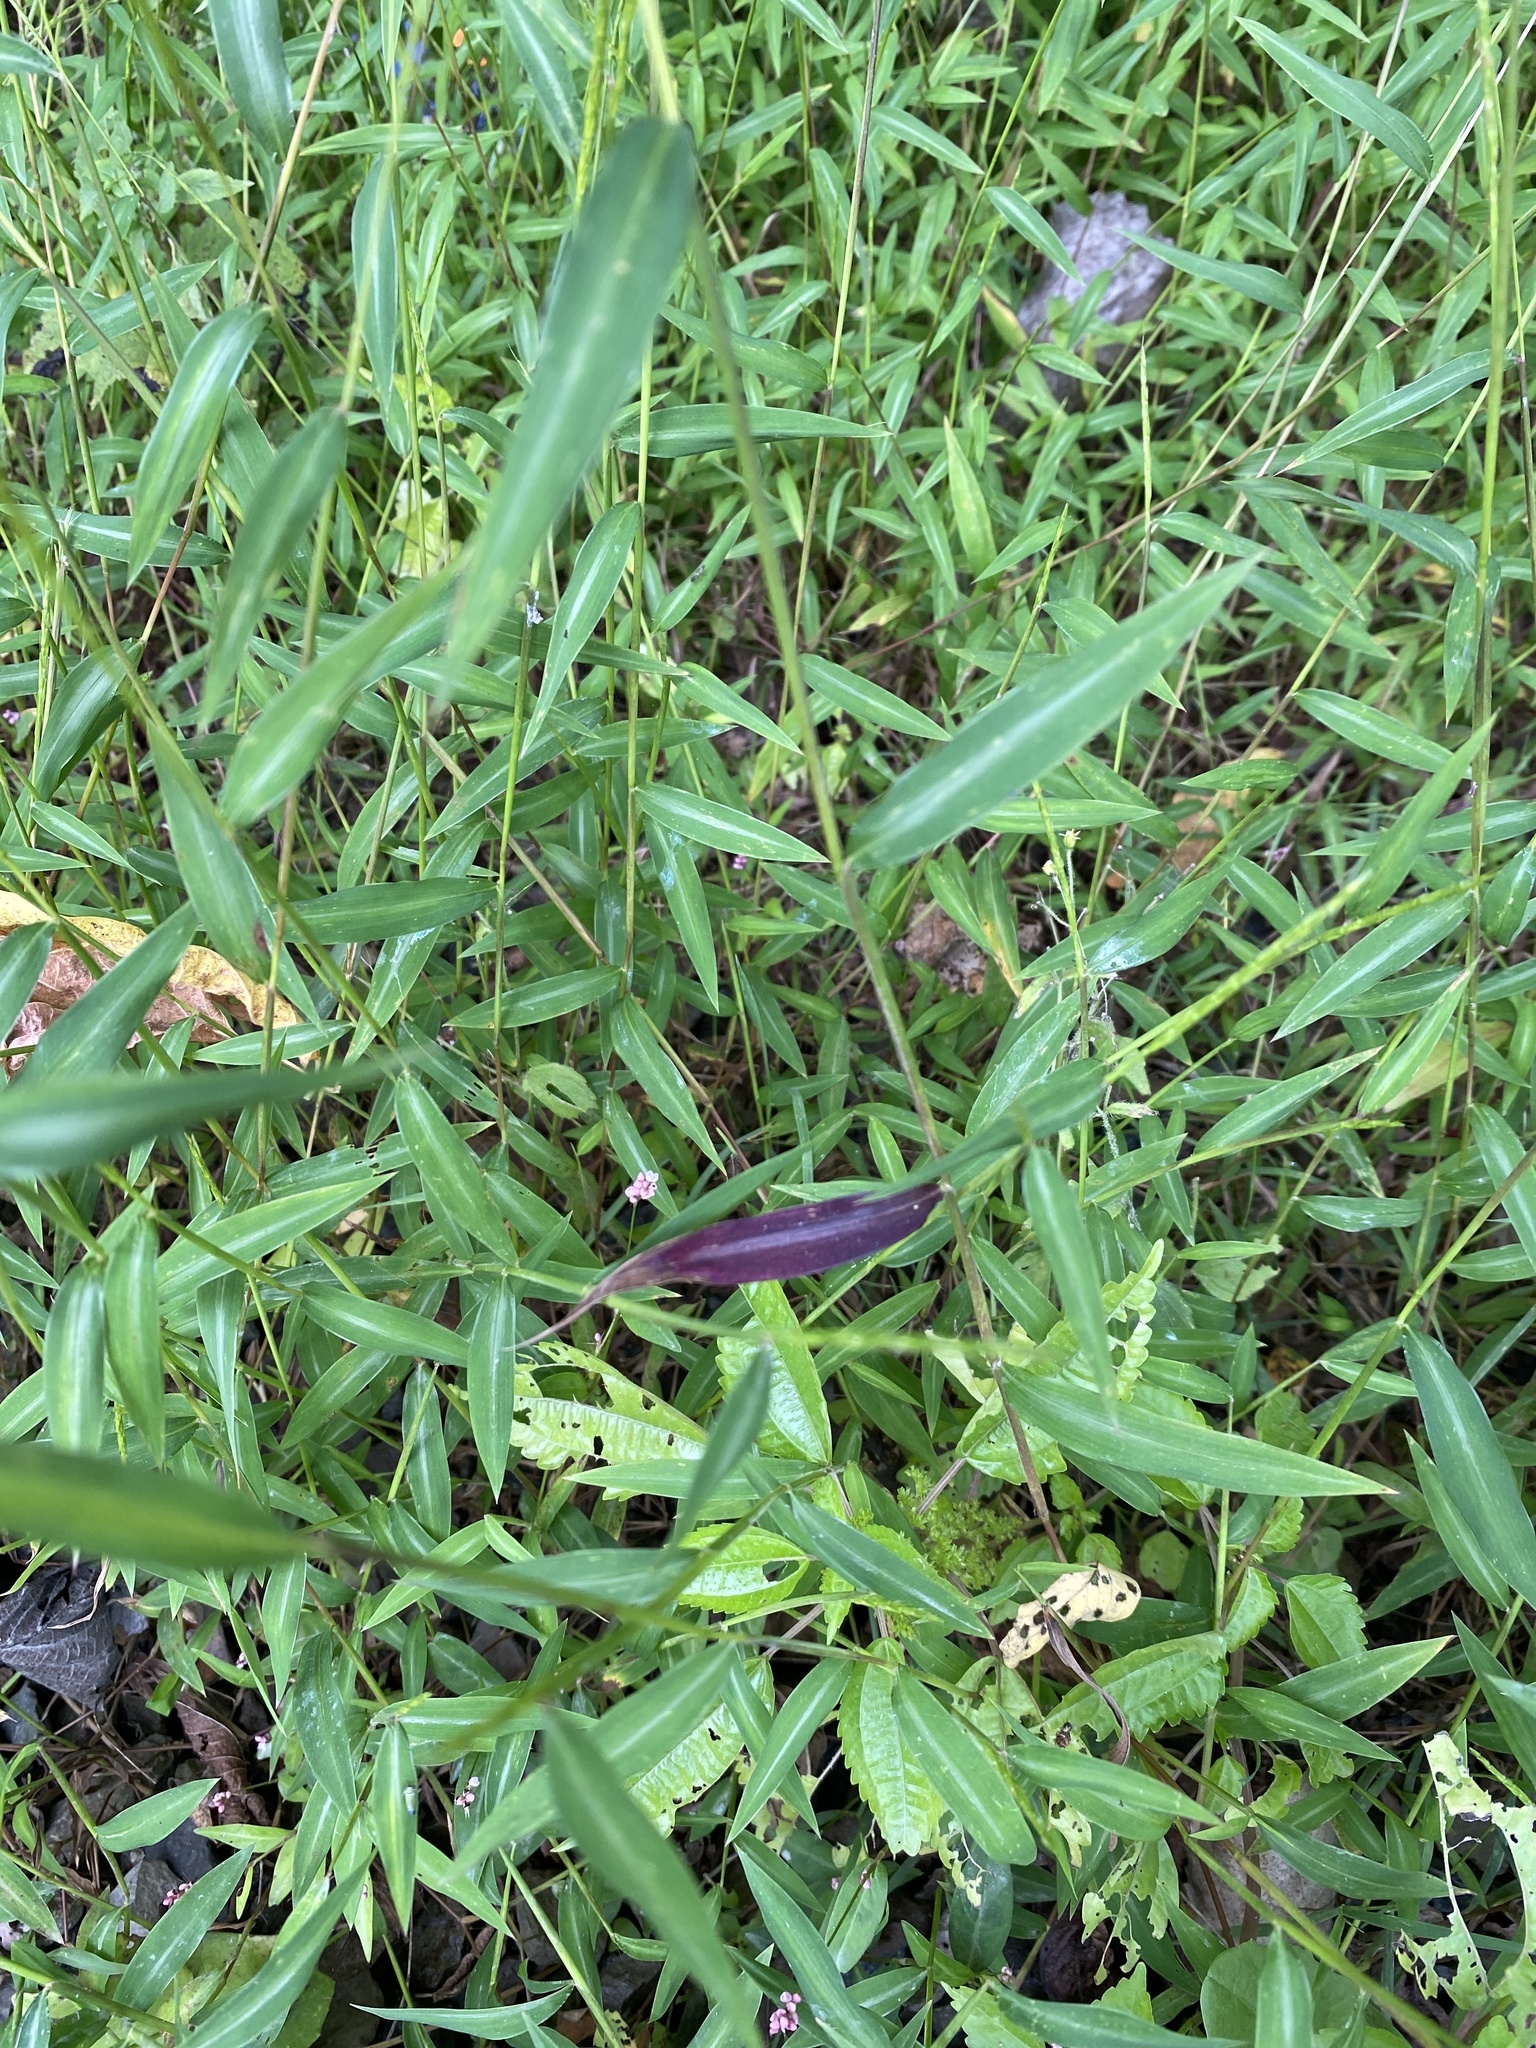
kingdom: Plantae
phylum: Tracheophyta
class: Liliopsida
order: Poales
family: Poaceae
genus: Microstegium
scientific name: Microstegium vimineum
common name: Japanese stiltgrass
